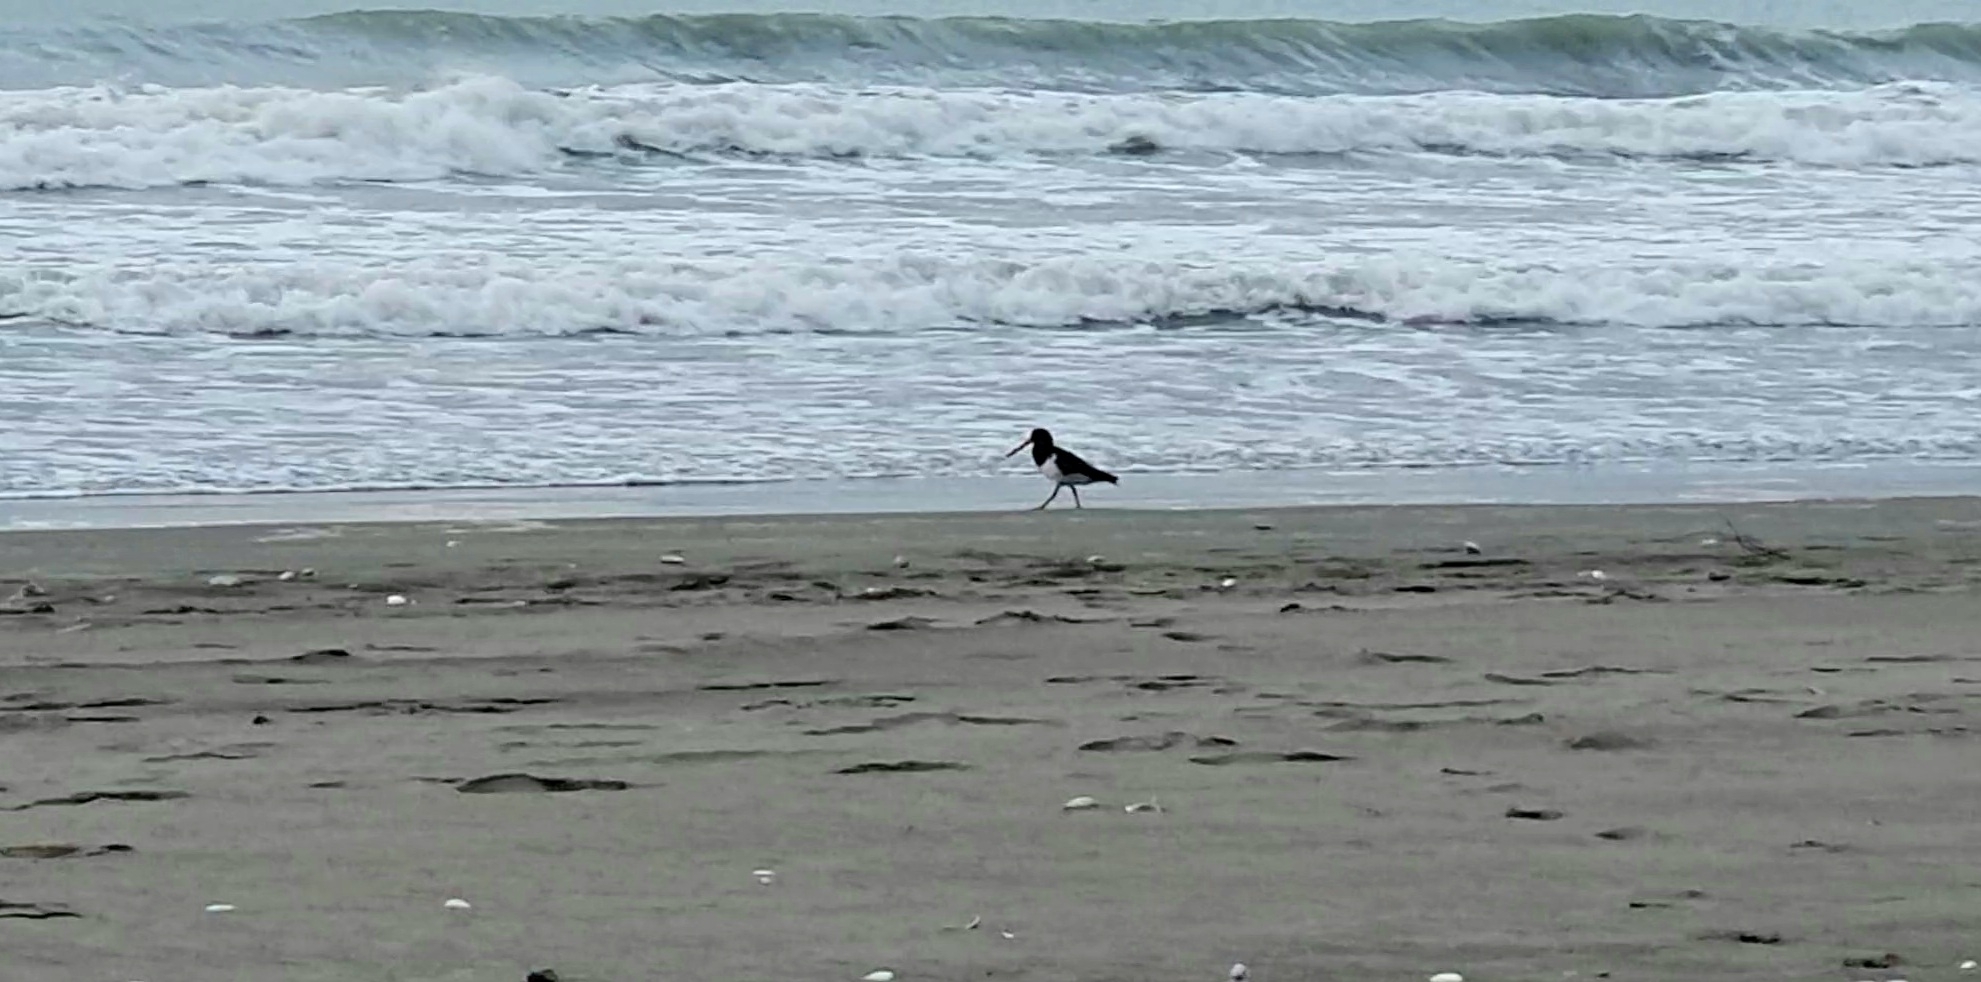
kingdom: Animalia
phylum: Chordata
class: Aves
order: Charadriiformes
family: Haematopodidae
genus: Haematopus
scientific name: Haematopus finschi
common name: South island oystercatcher
